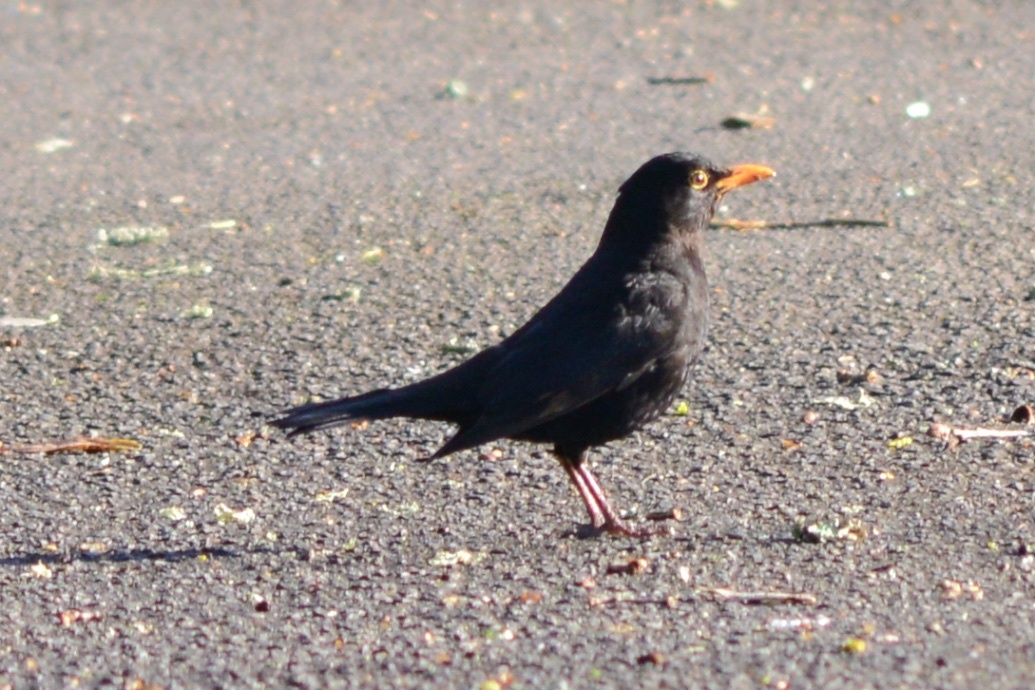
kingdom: Animalia
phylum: Chordata
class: Aves
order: Passeriformes
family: Turdidae
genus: Turdus
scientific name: Turdus merula
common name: Common blackbird
